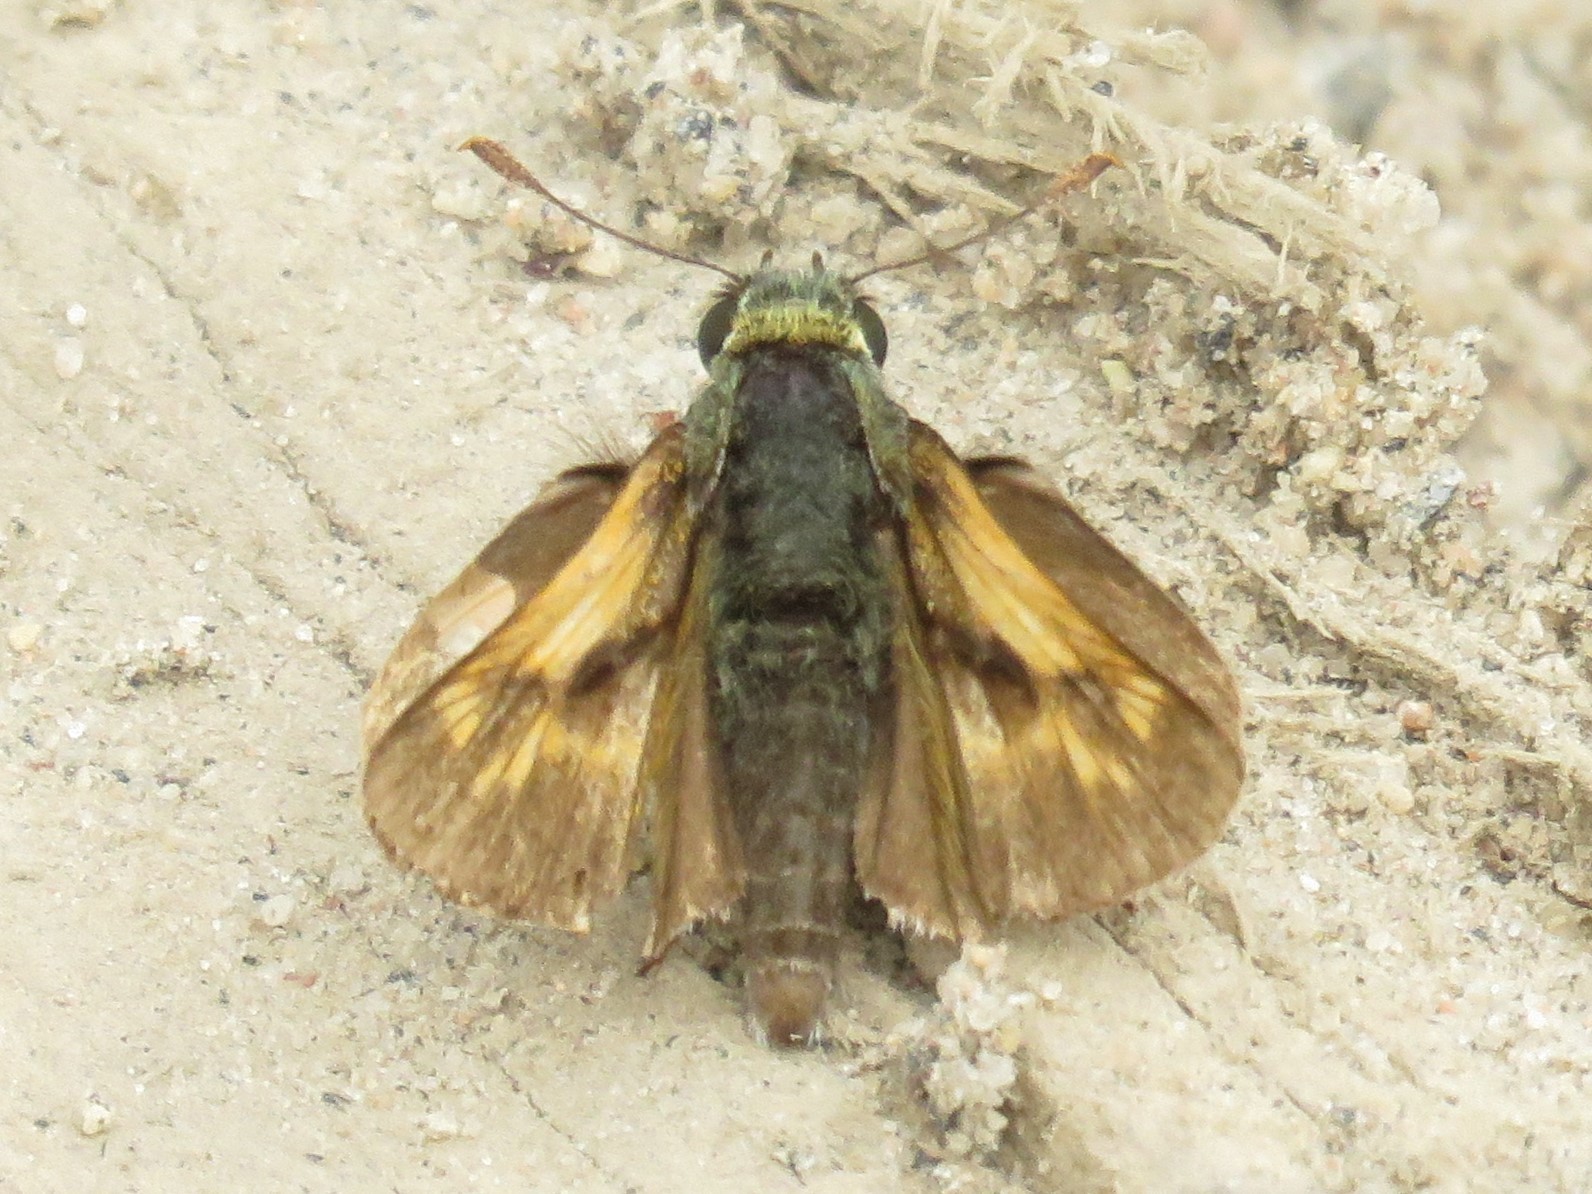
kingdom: Animalia
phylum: Arthropoda
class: Insecta
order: Lepidoptera
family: Hesperiidae
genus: Polites
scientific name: Polites mystic
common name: Long dash
